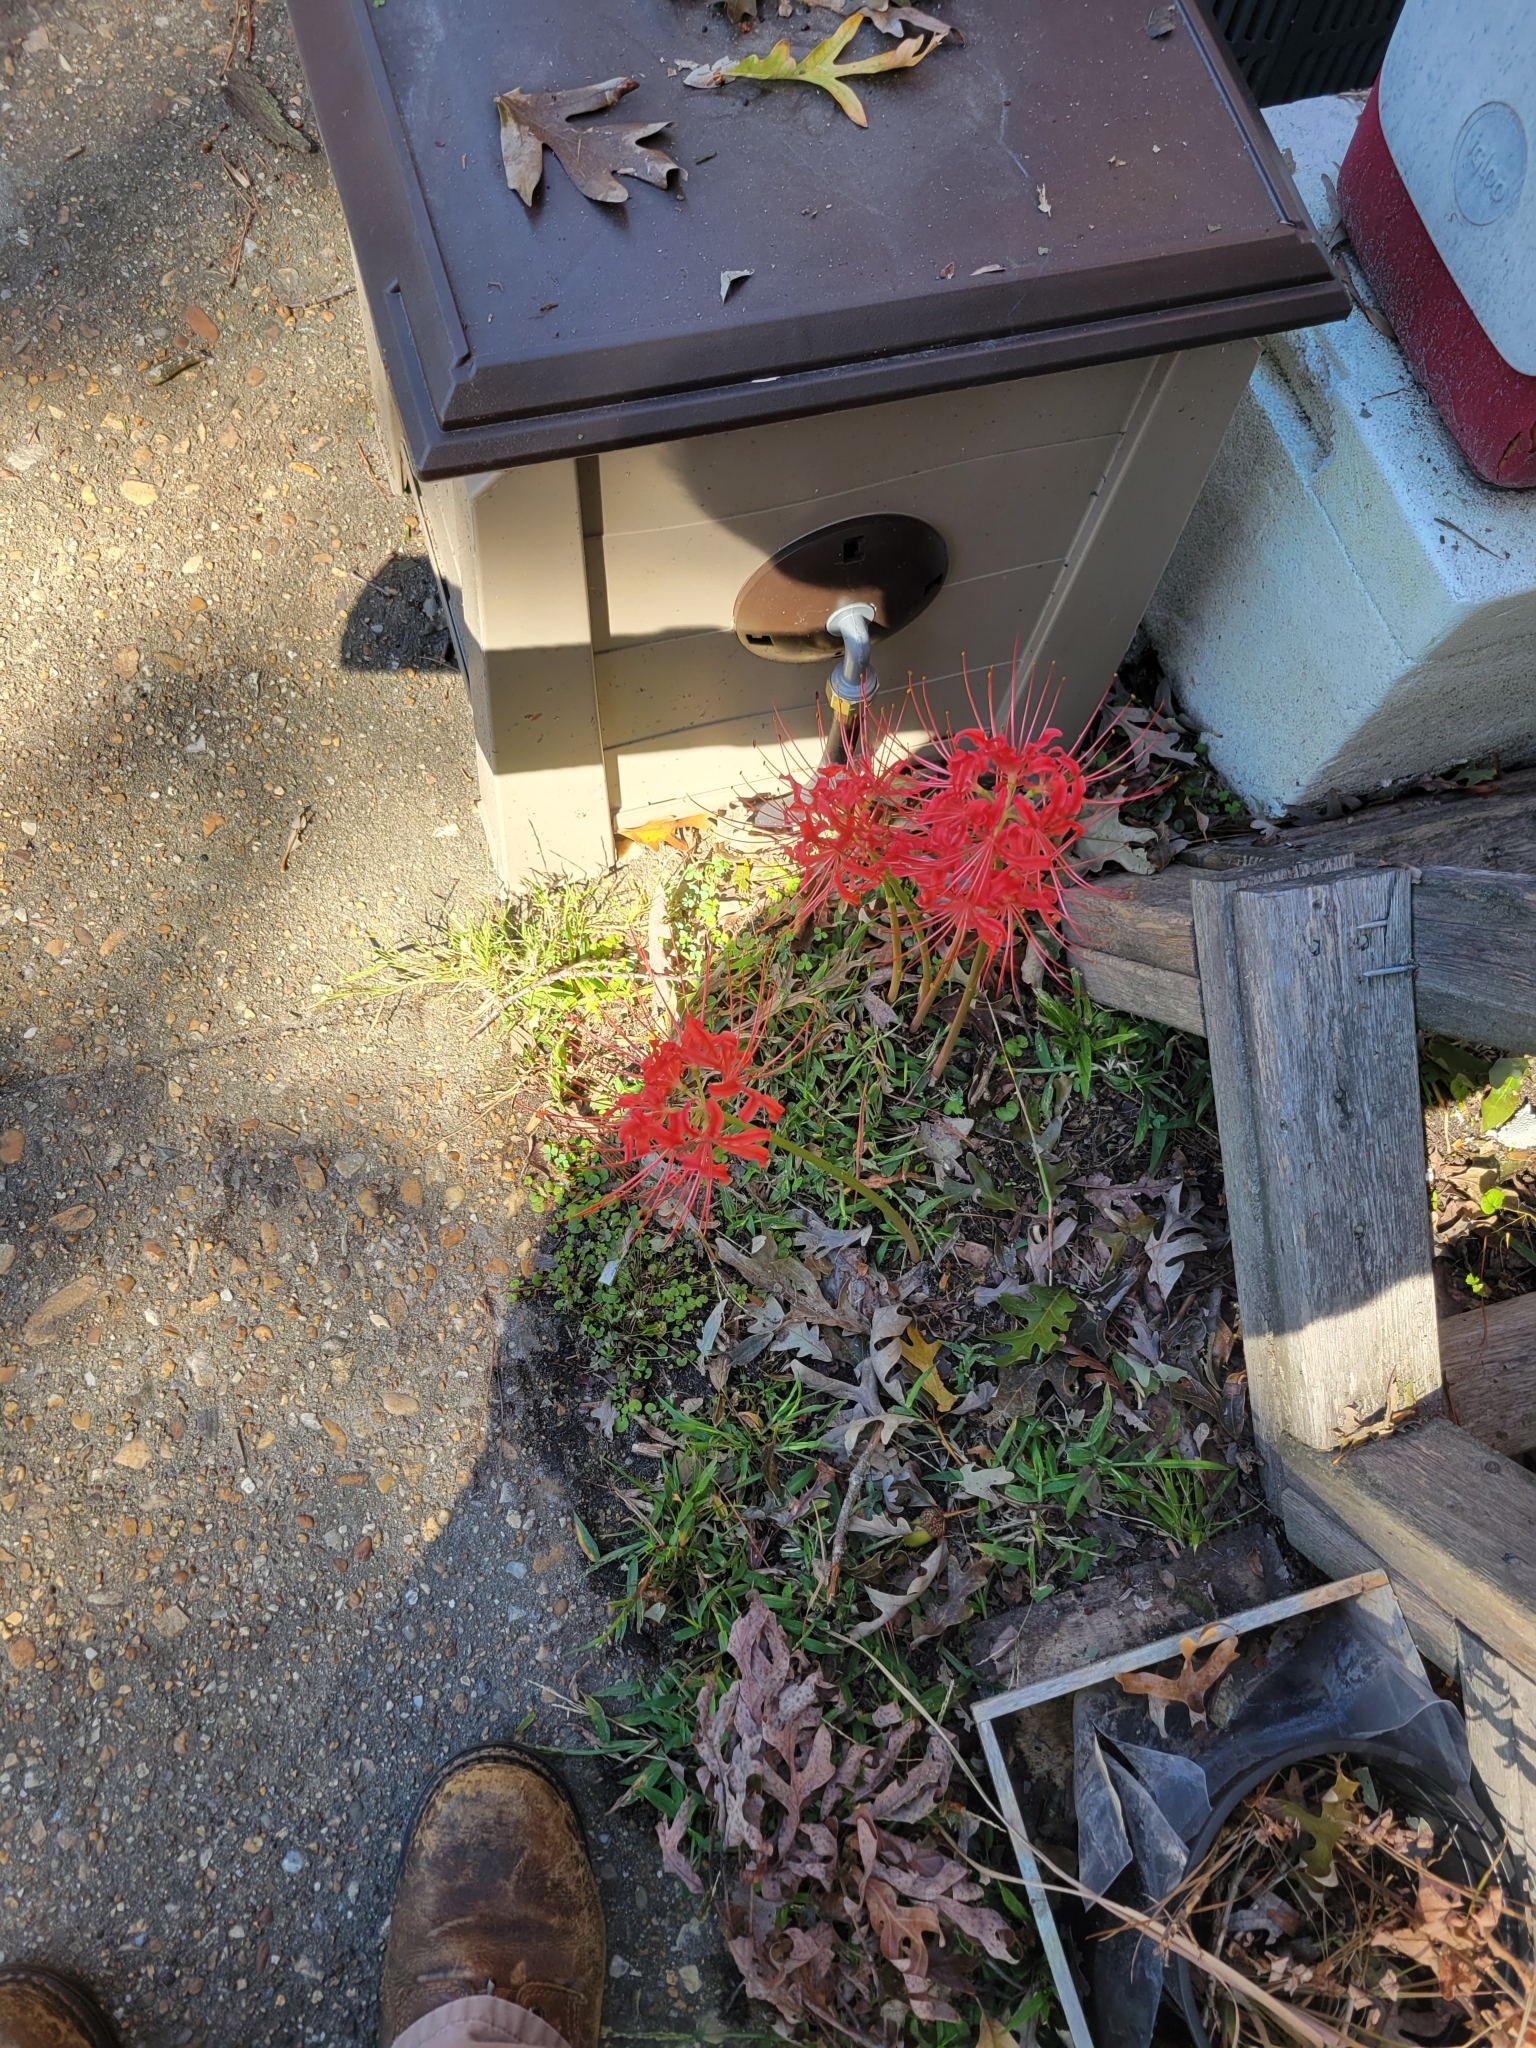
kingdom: Plantae
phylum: Tracheophyta
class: Liliopsida
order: Asparagales
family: Amaryllidaceae
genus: Lycoris
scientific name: Lycoris radiata
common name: Red spider lily
